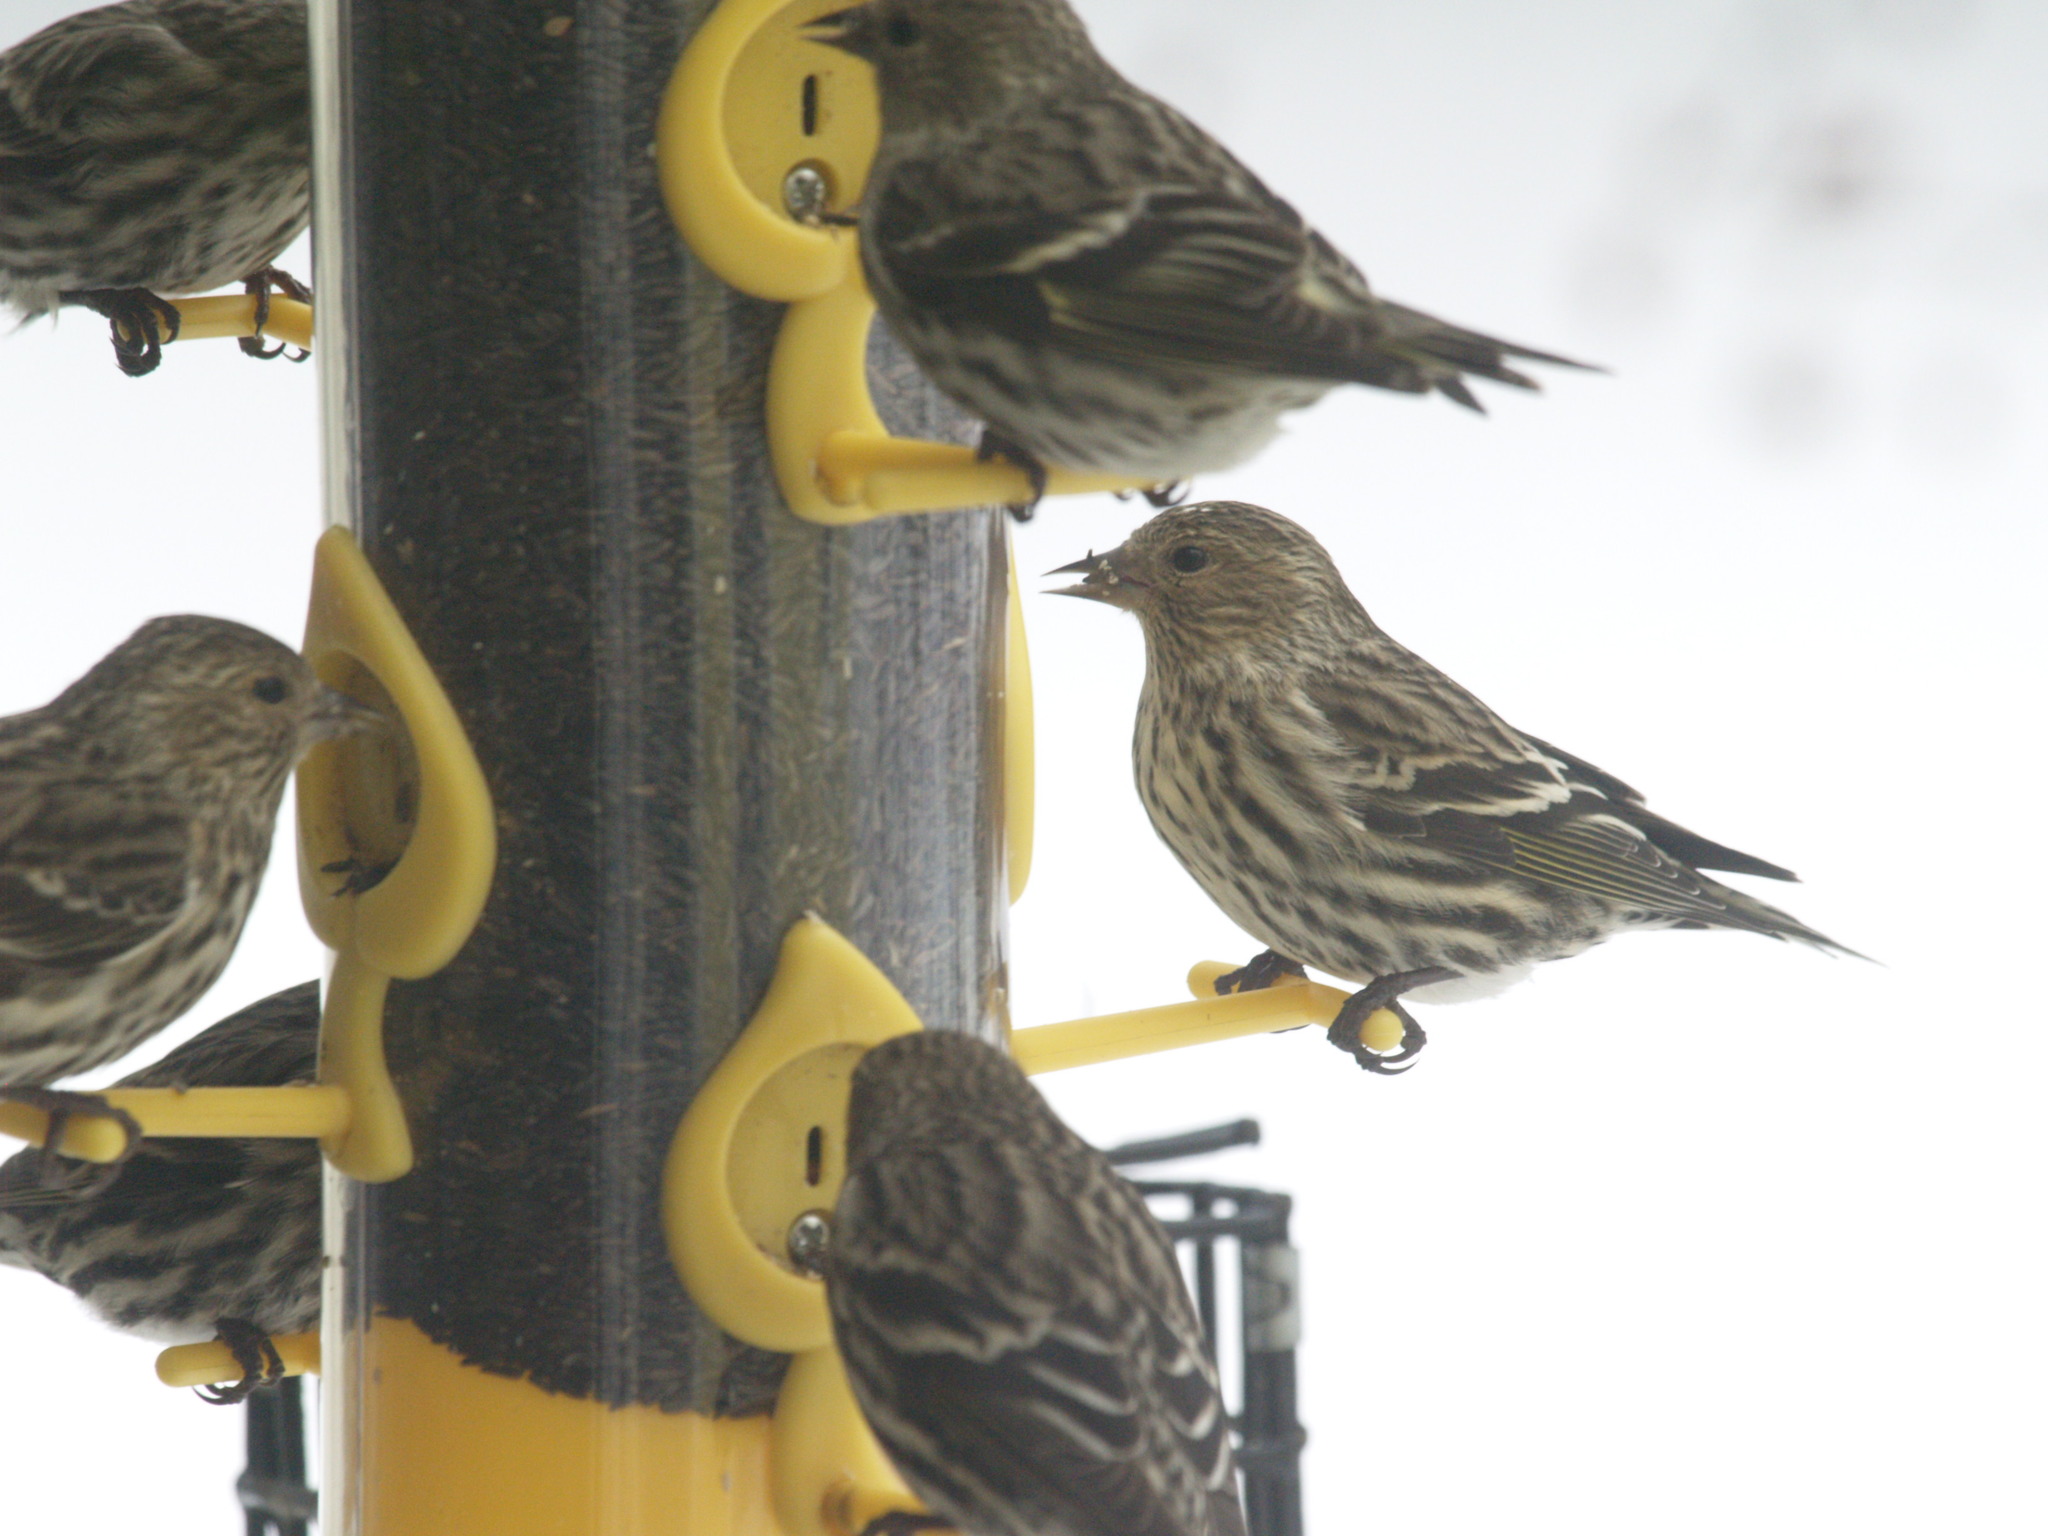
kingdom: Animalia
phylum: Chordata
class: Aves
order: Passeriformes
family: Fringillidae
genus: Spinus
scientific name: Spinus pinus
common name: Pine siskin
